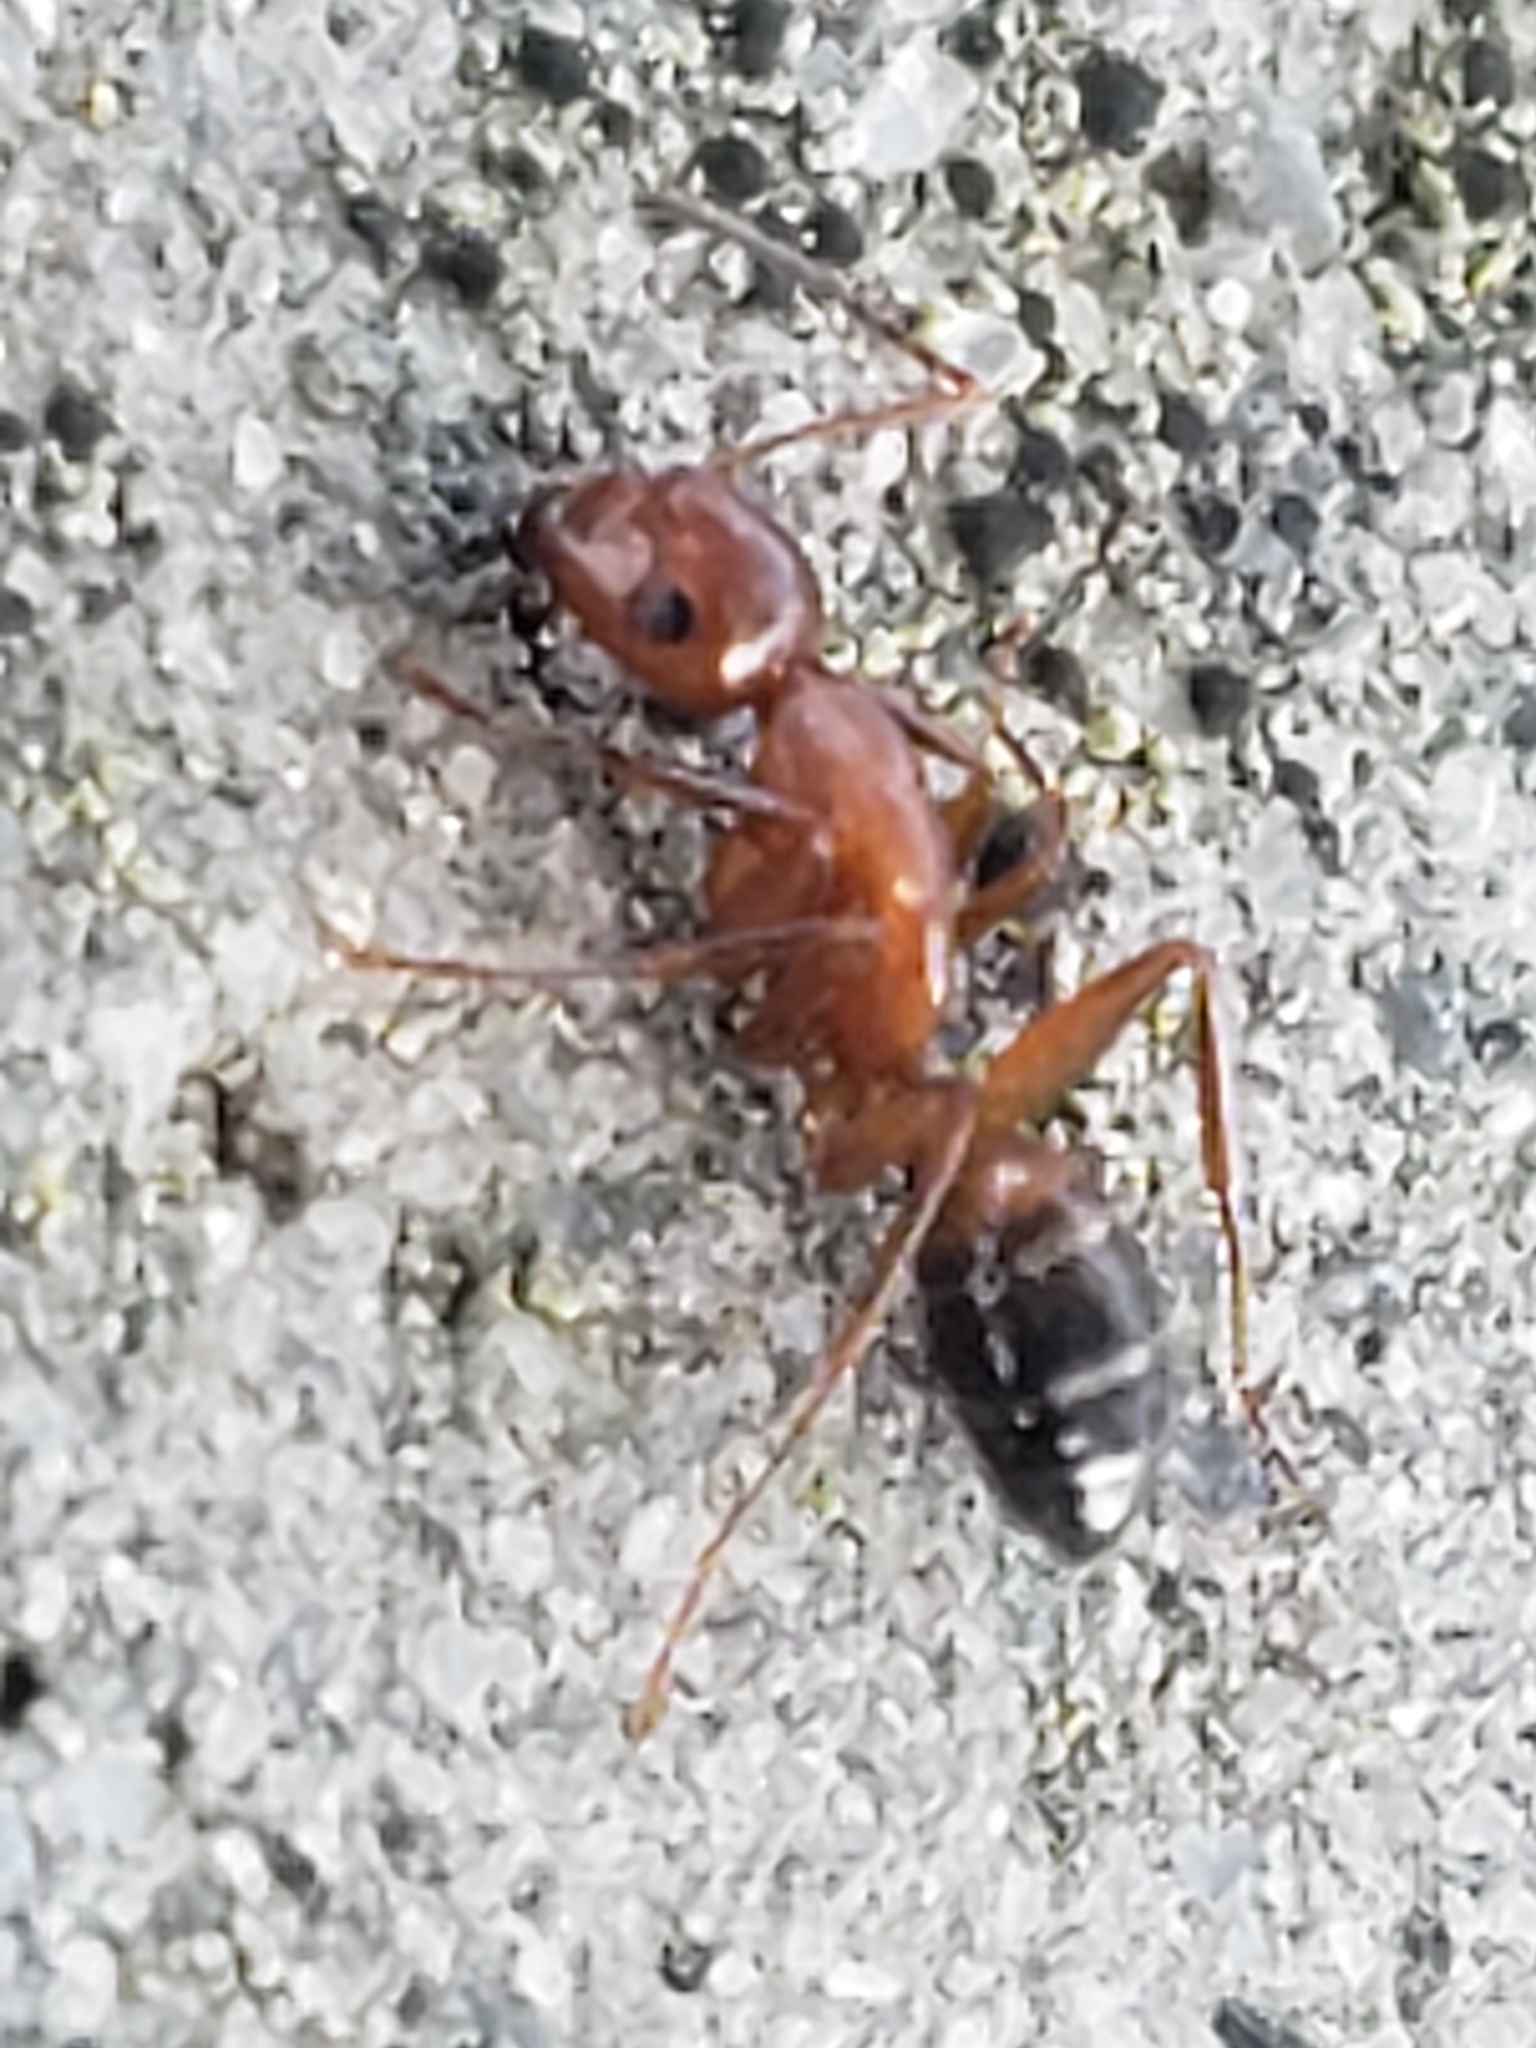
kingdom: Animalia
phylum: Arthropoda
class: Insecta
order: Hymenoptera
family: Formicidae
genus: Camponotus
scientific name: Camponotus snellingi
